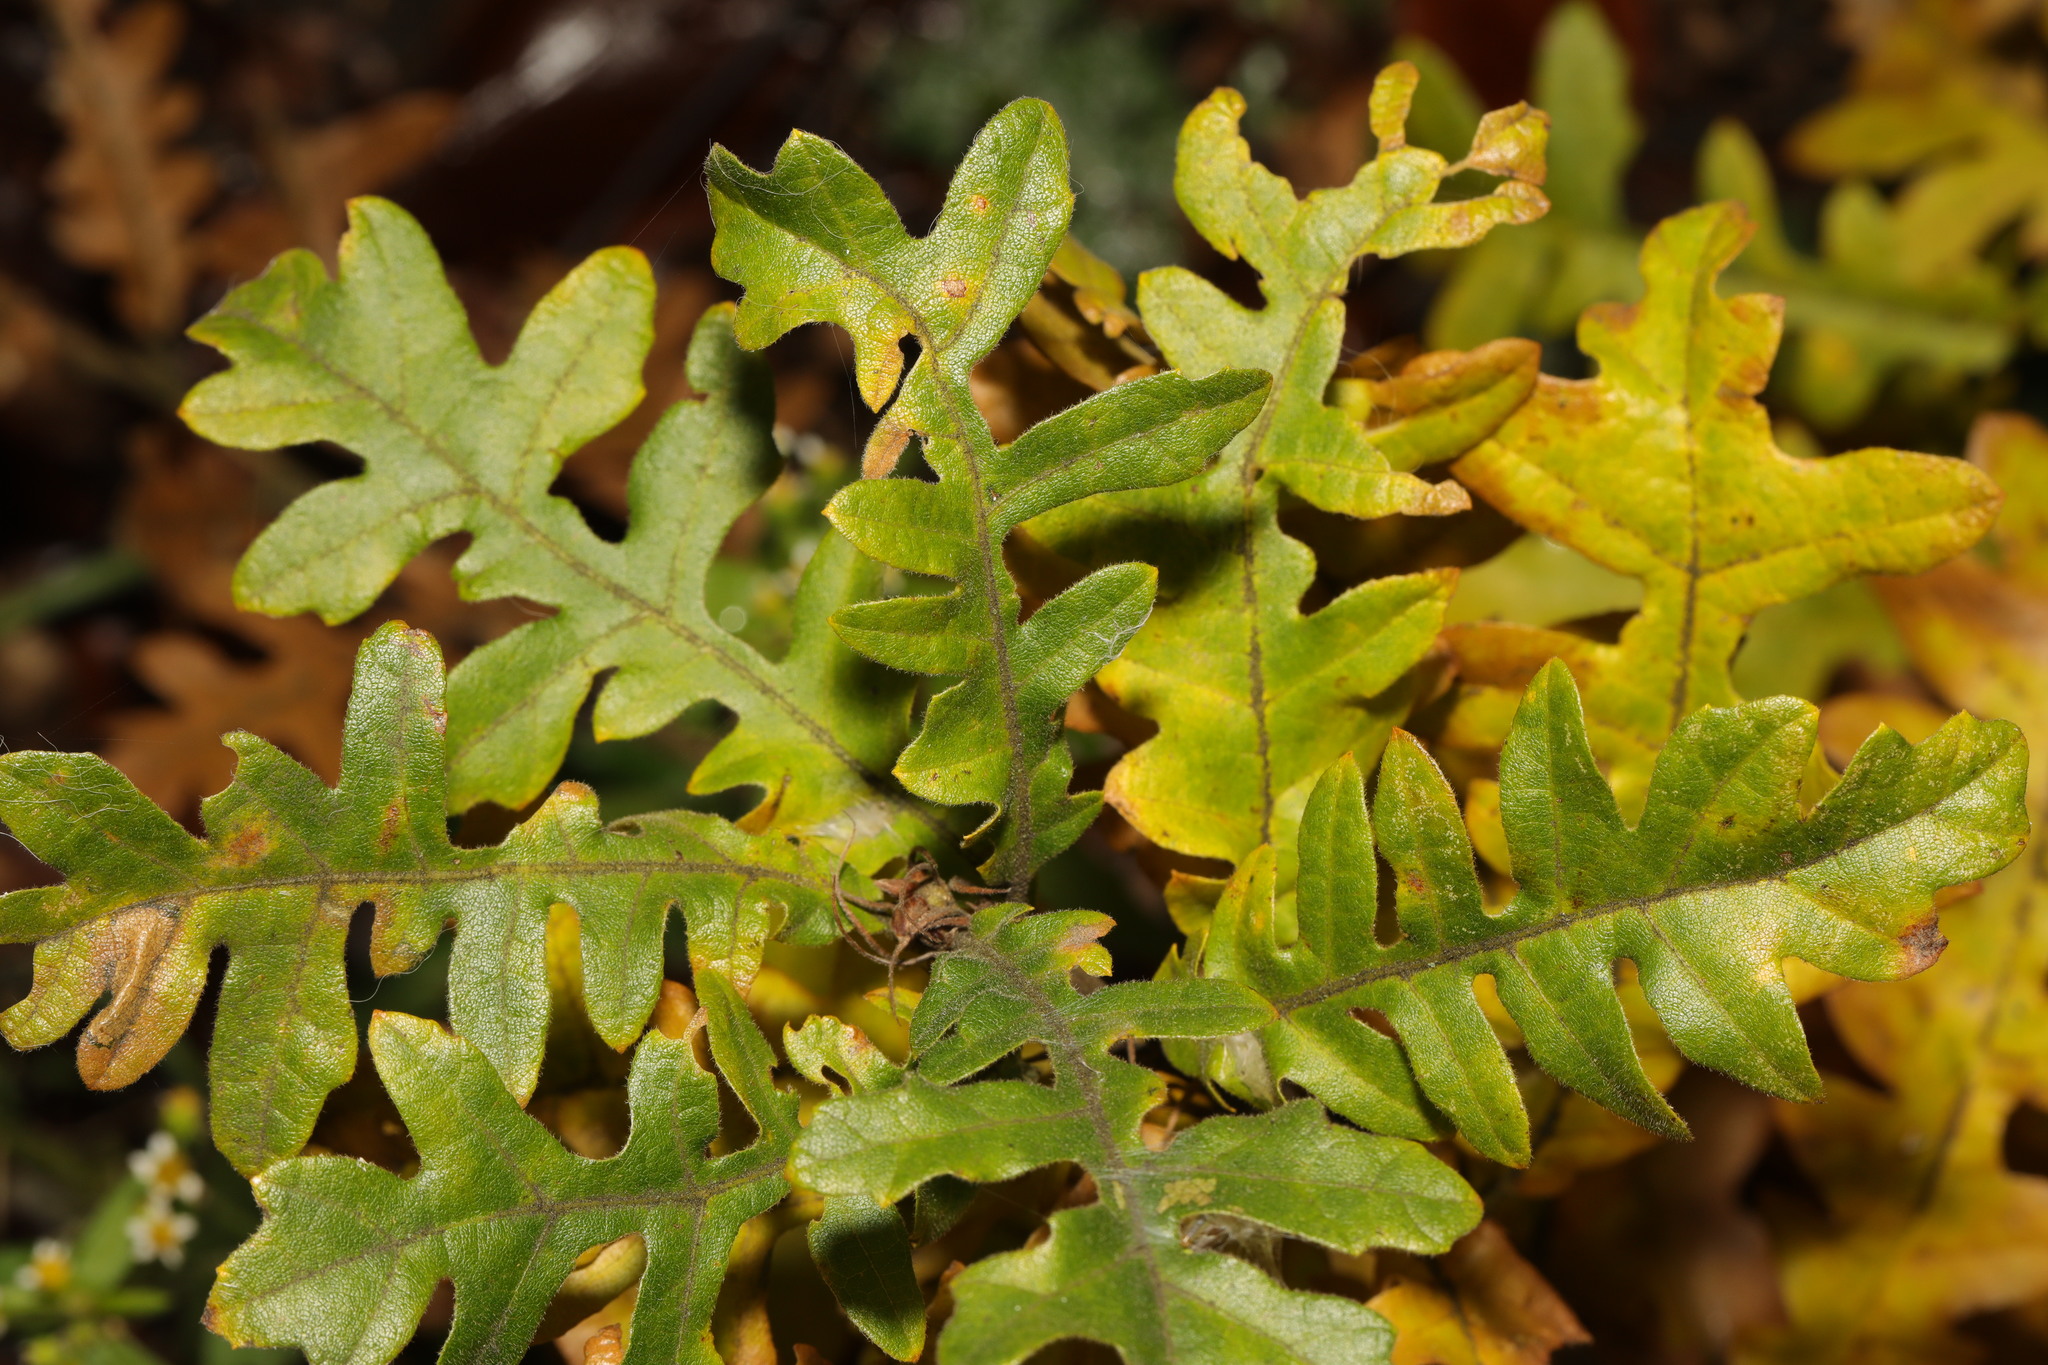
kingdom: Plantae
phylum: Tracheophyta
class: Magnoliopsida
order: Fagales
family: Fagaceae
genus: Quercus
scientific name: Quercus cerris
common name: Turkey oak
